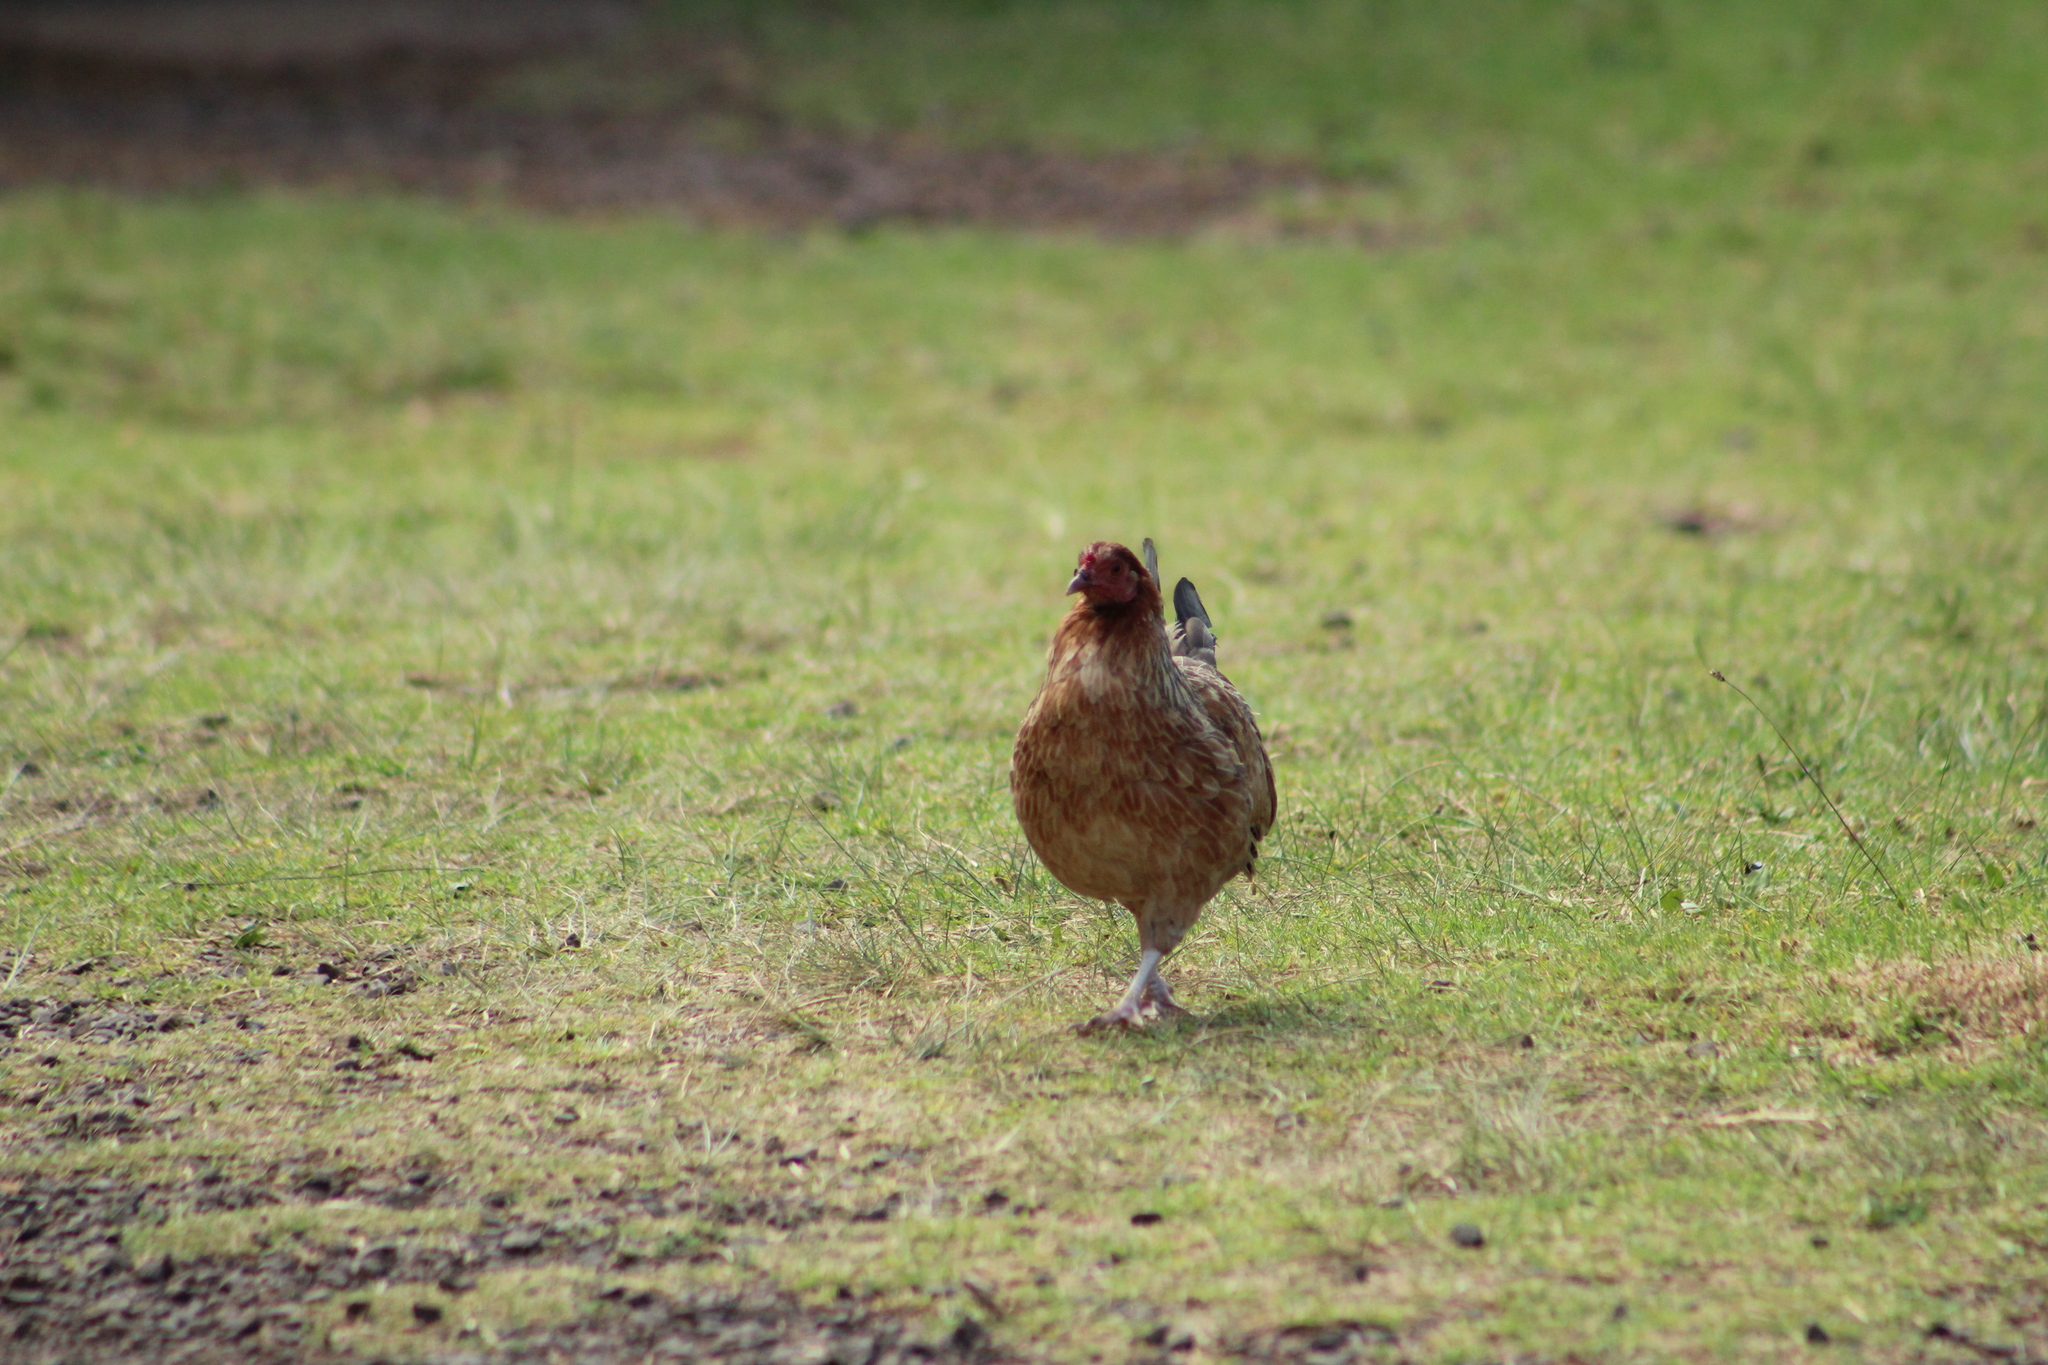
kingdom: Animalia
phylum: Chordata
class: Aves
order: Galliformes
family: Phasianidae
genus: Gallus
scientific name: Gallus gallus
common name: Red junglefowl
